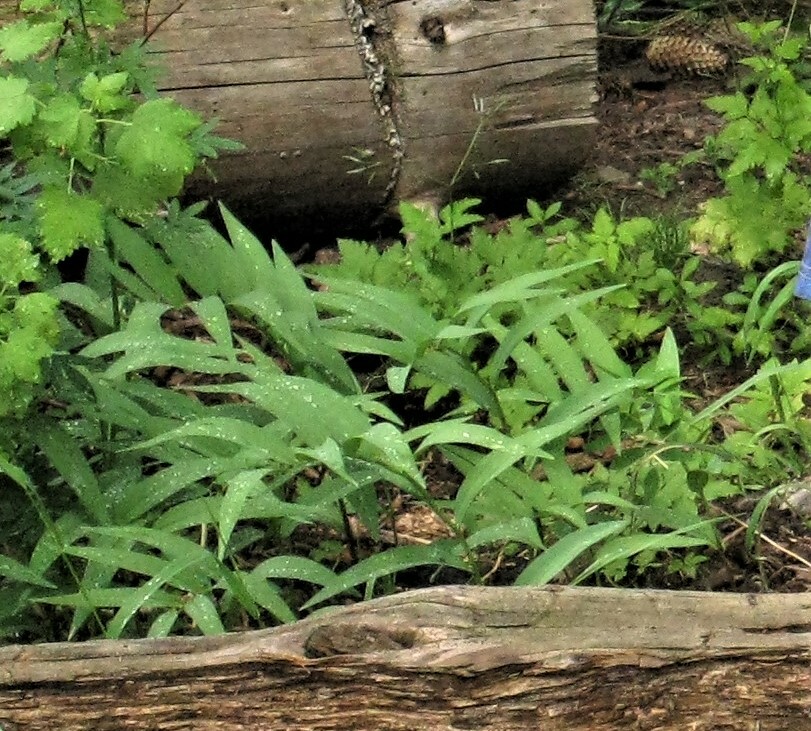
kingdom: Plantae
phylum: Tracheophyta
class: Liliopsida
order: Asparagales
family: Asparagaceae
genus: Maianthemum
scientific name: Maianthemum stellatum
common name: Little false solomon's seal
